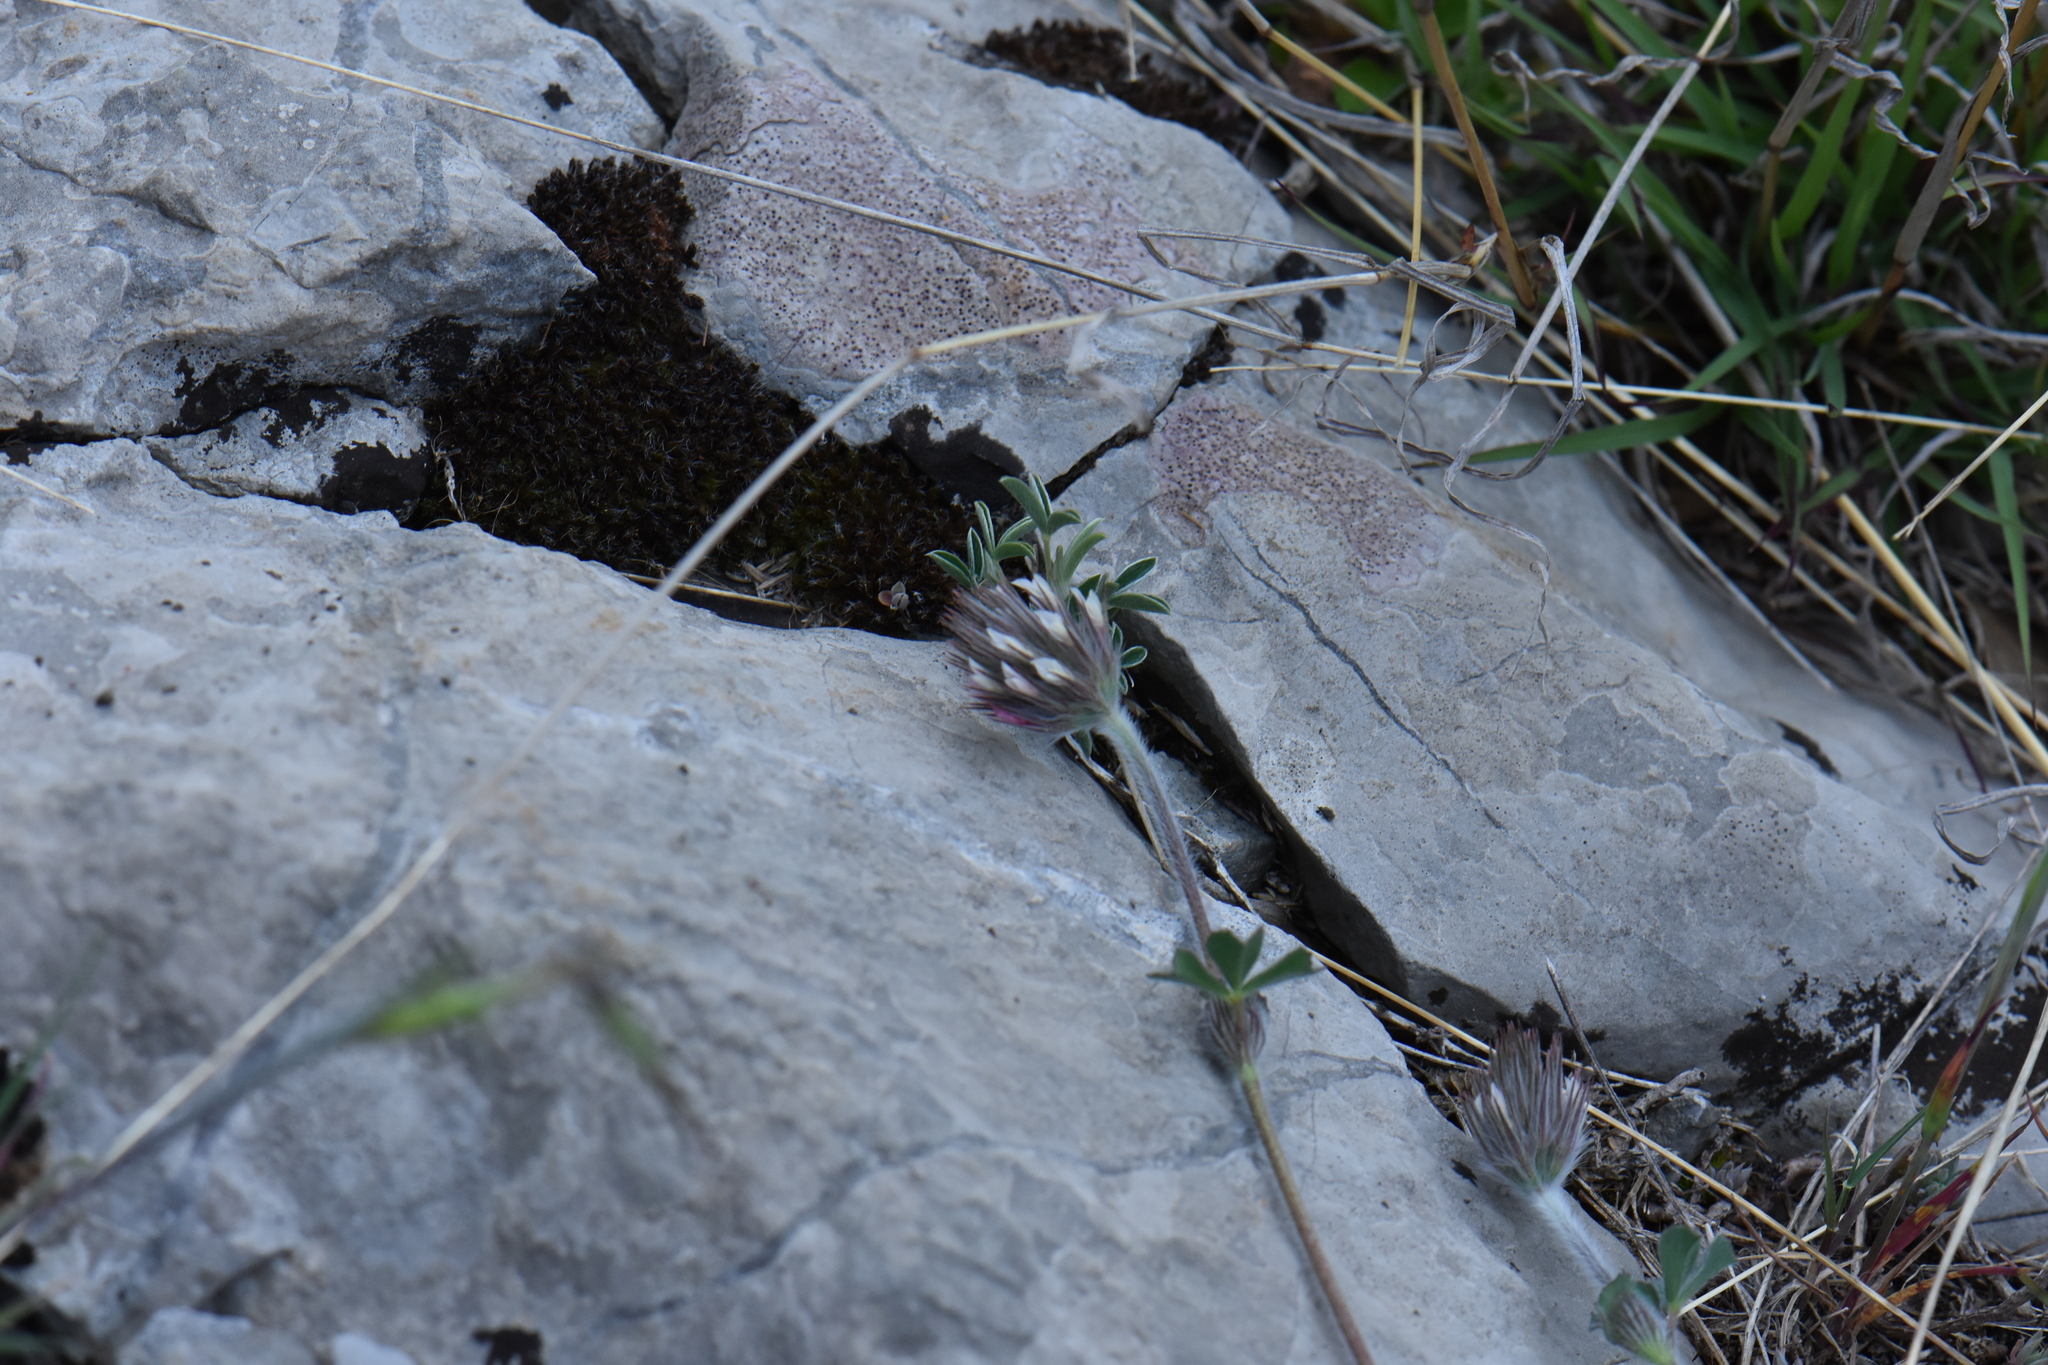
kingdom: Plantae
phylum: Tracheophyta
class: Magnoliopsida
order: Fabales
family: Fabaceae
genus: Trifolium
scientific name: Trifolium stellatum
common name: Starry clover
